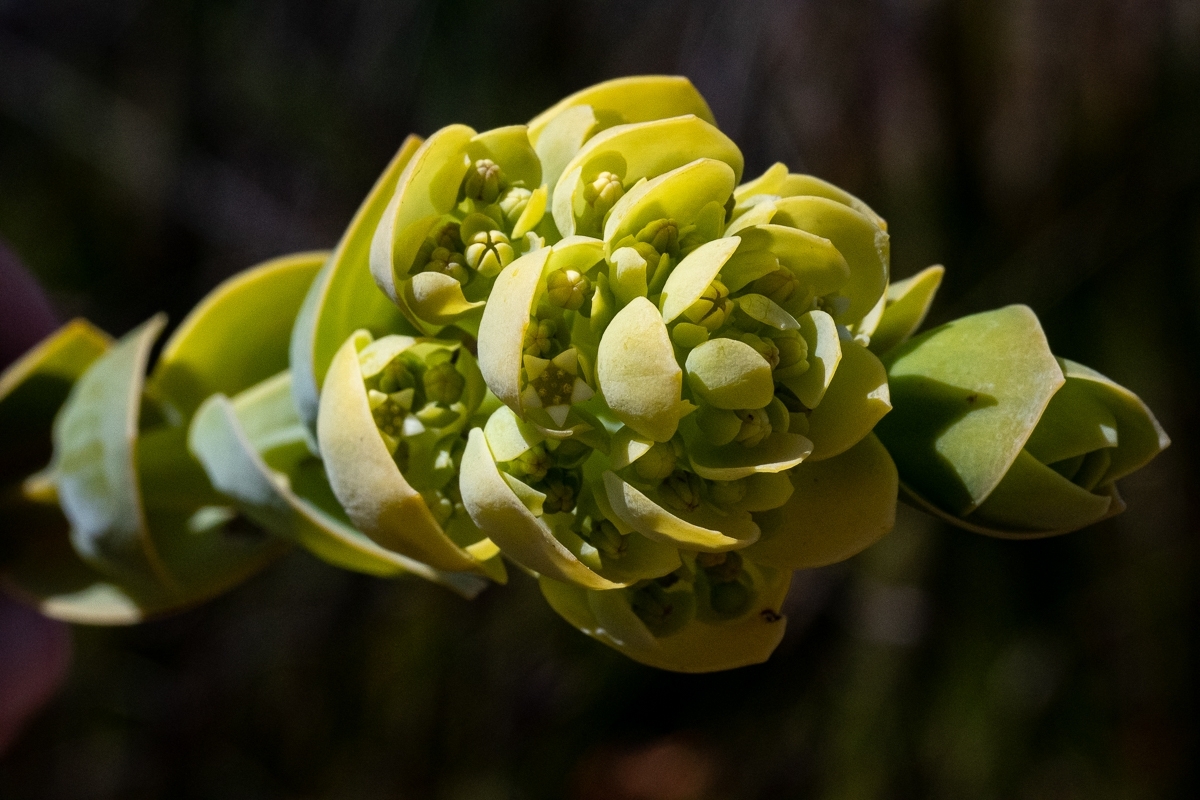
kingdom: Plantae
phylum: Tracheophyta
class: Magnoliopsida
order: Santalales
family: Thesiaceae
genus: Thesium
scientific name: Thesium euphorbioides
